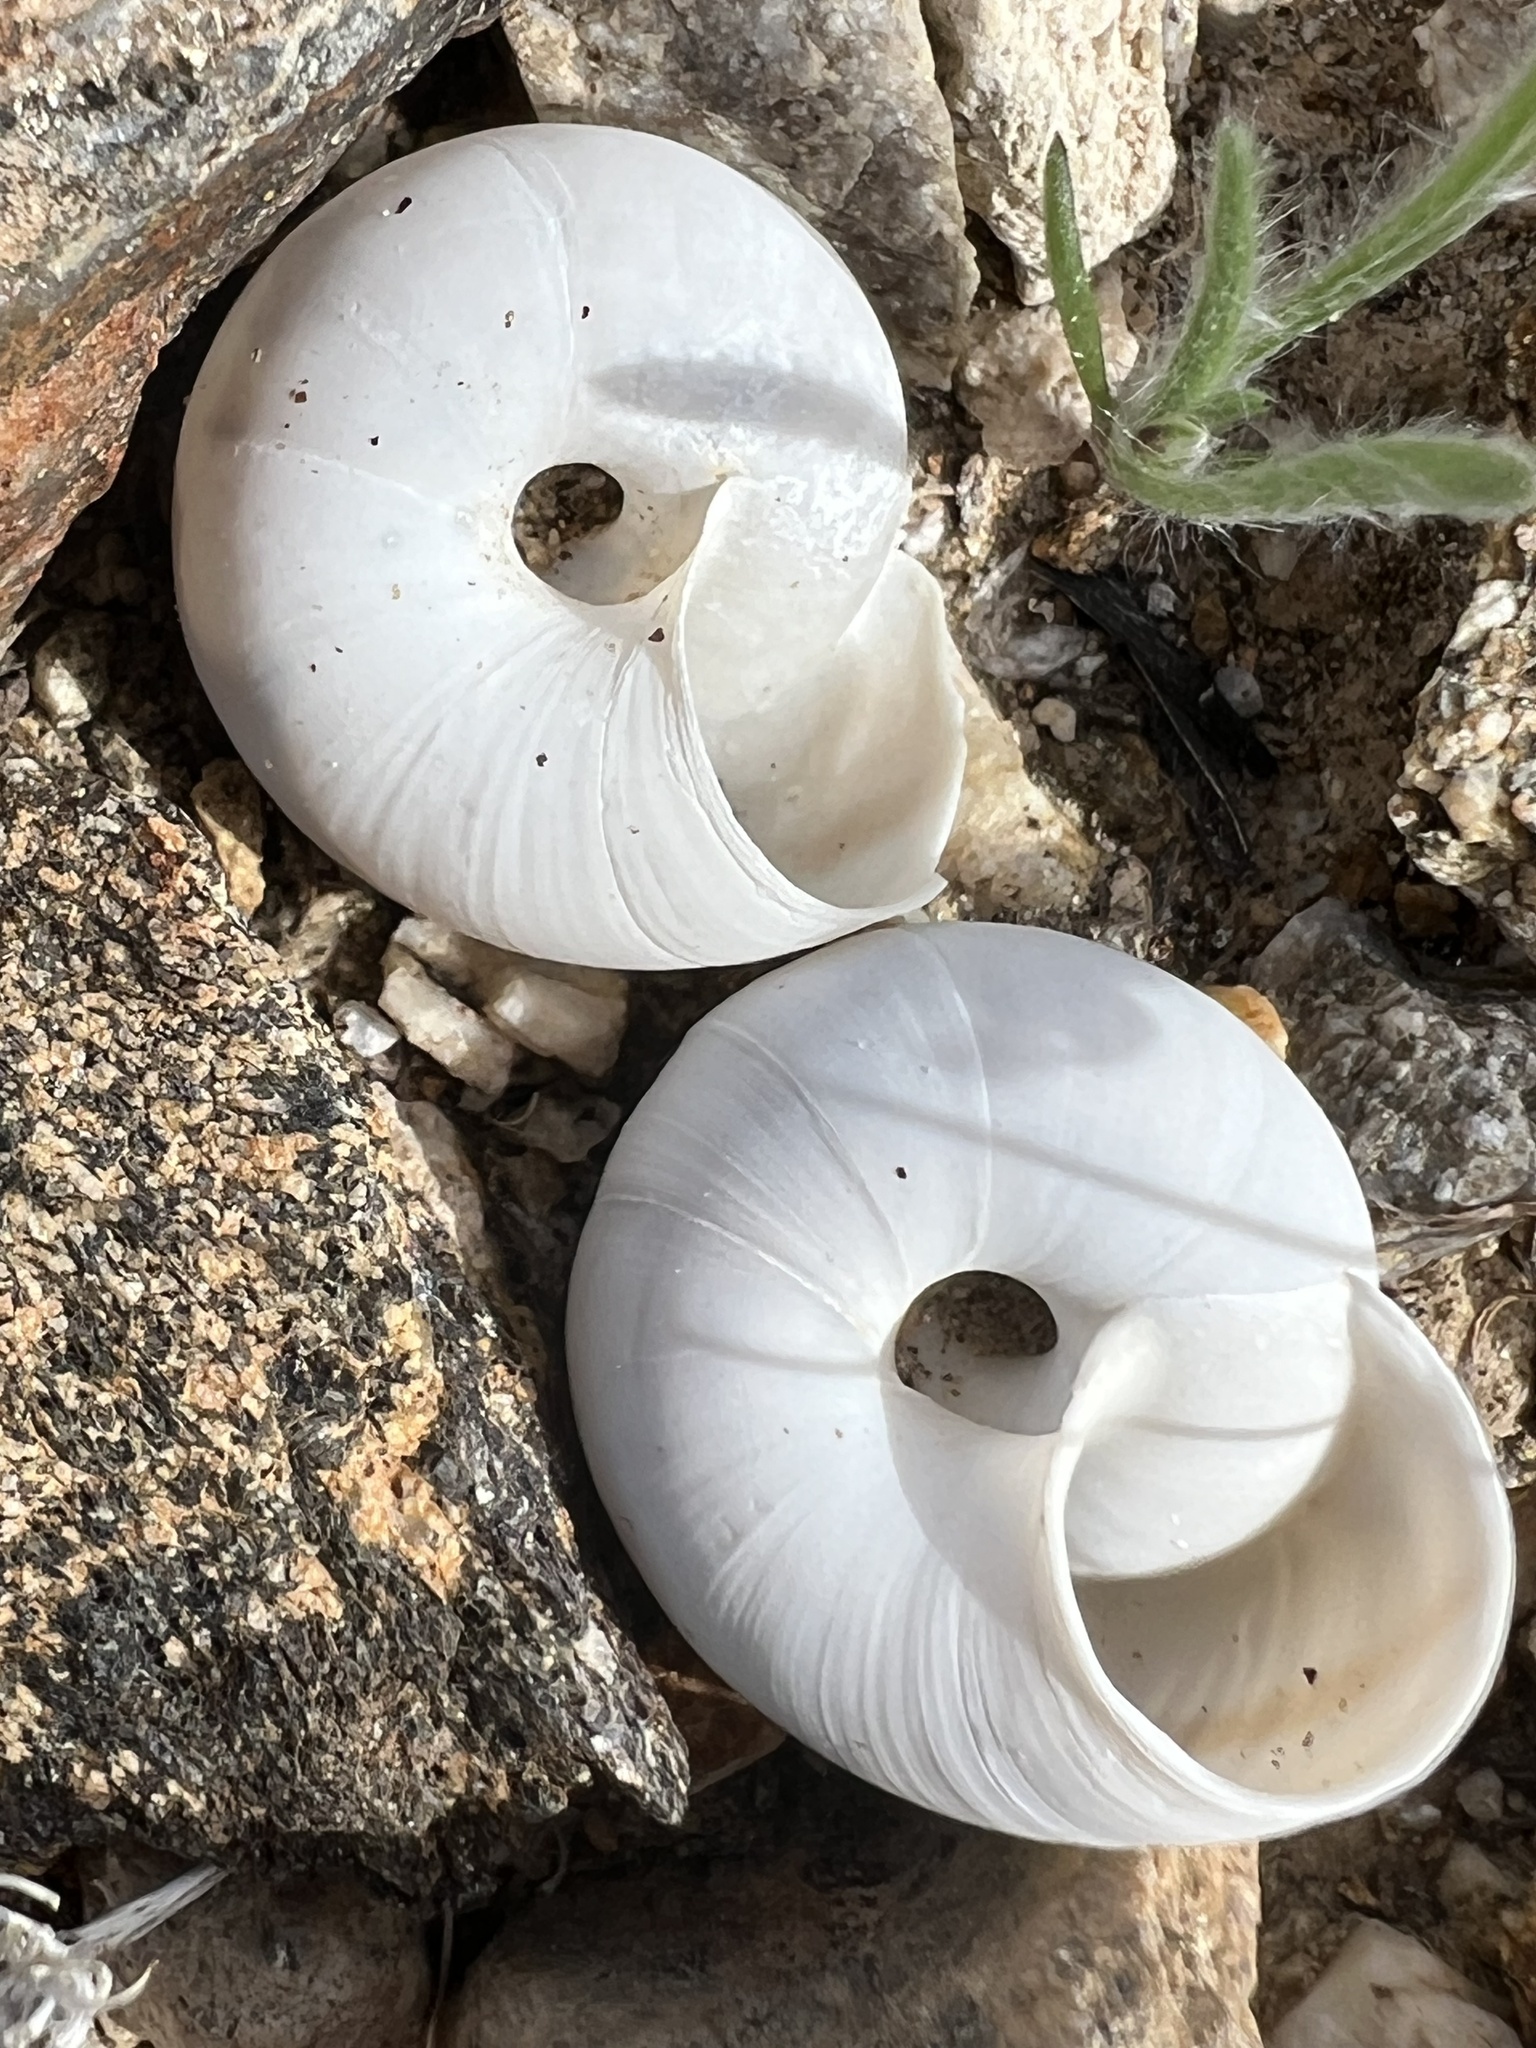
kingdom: Animalia
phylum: Mollusca
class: Gastropoda
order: Stylommatophora
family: Xanthonychidae
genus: Sonorelix
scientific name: Sonorelix borregoensis
